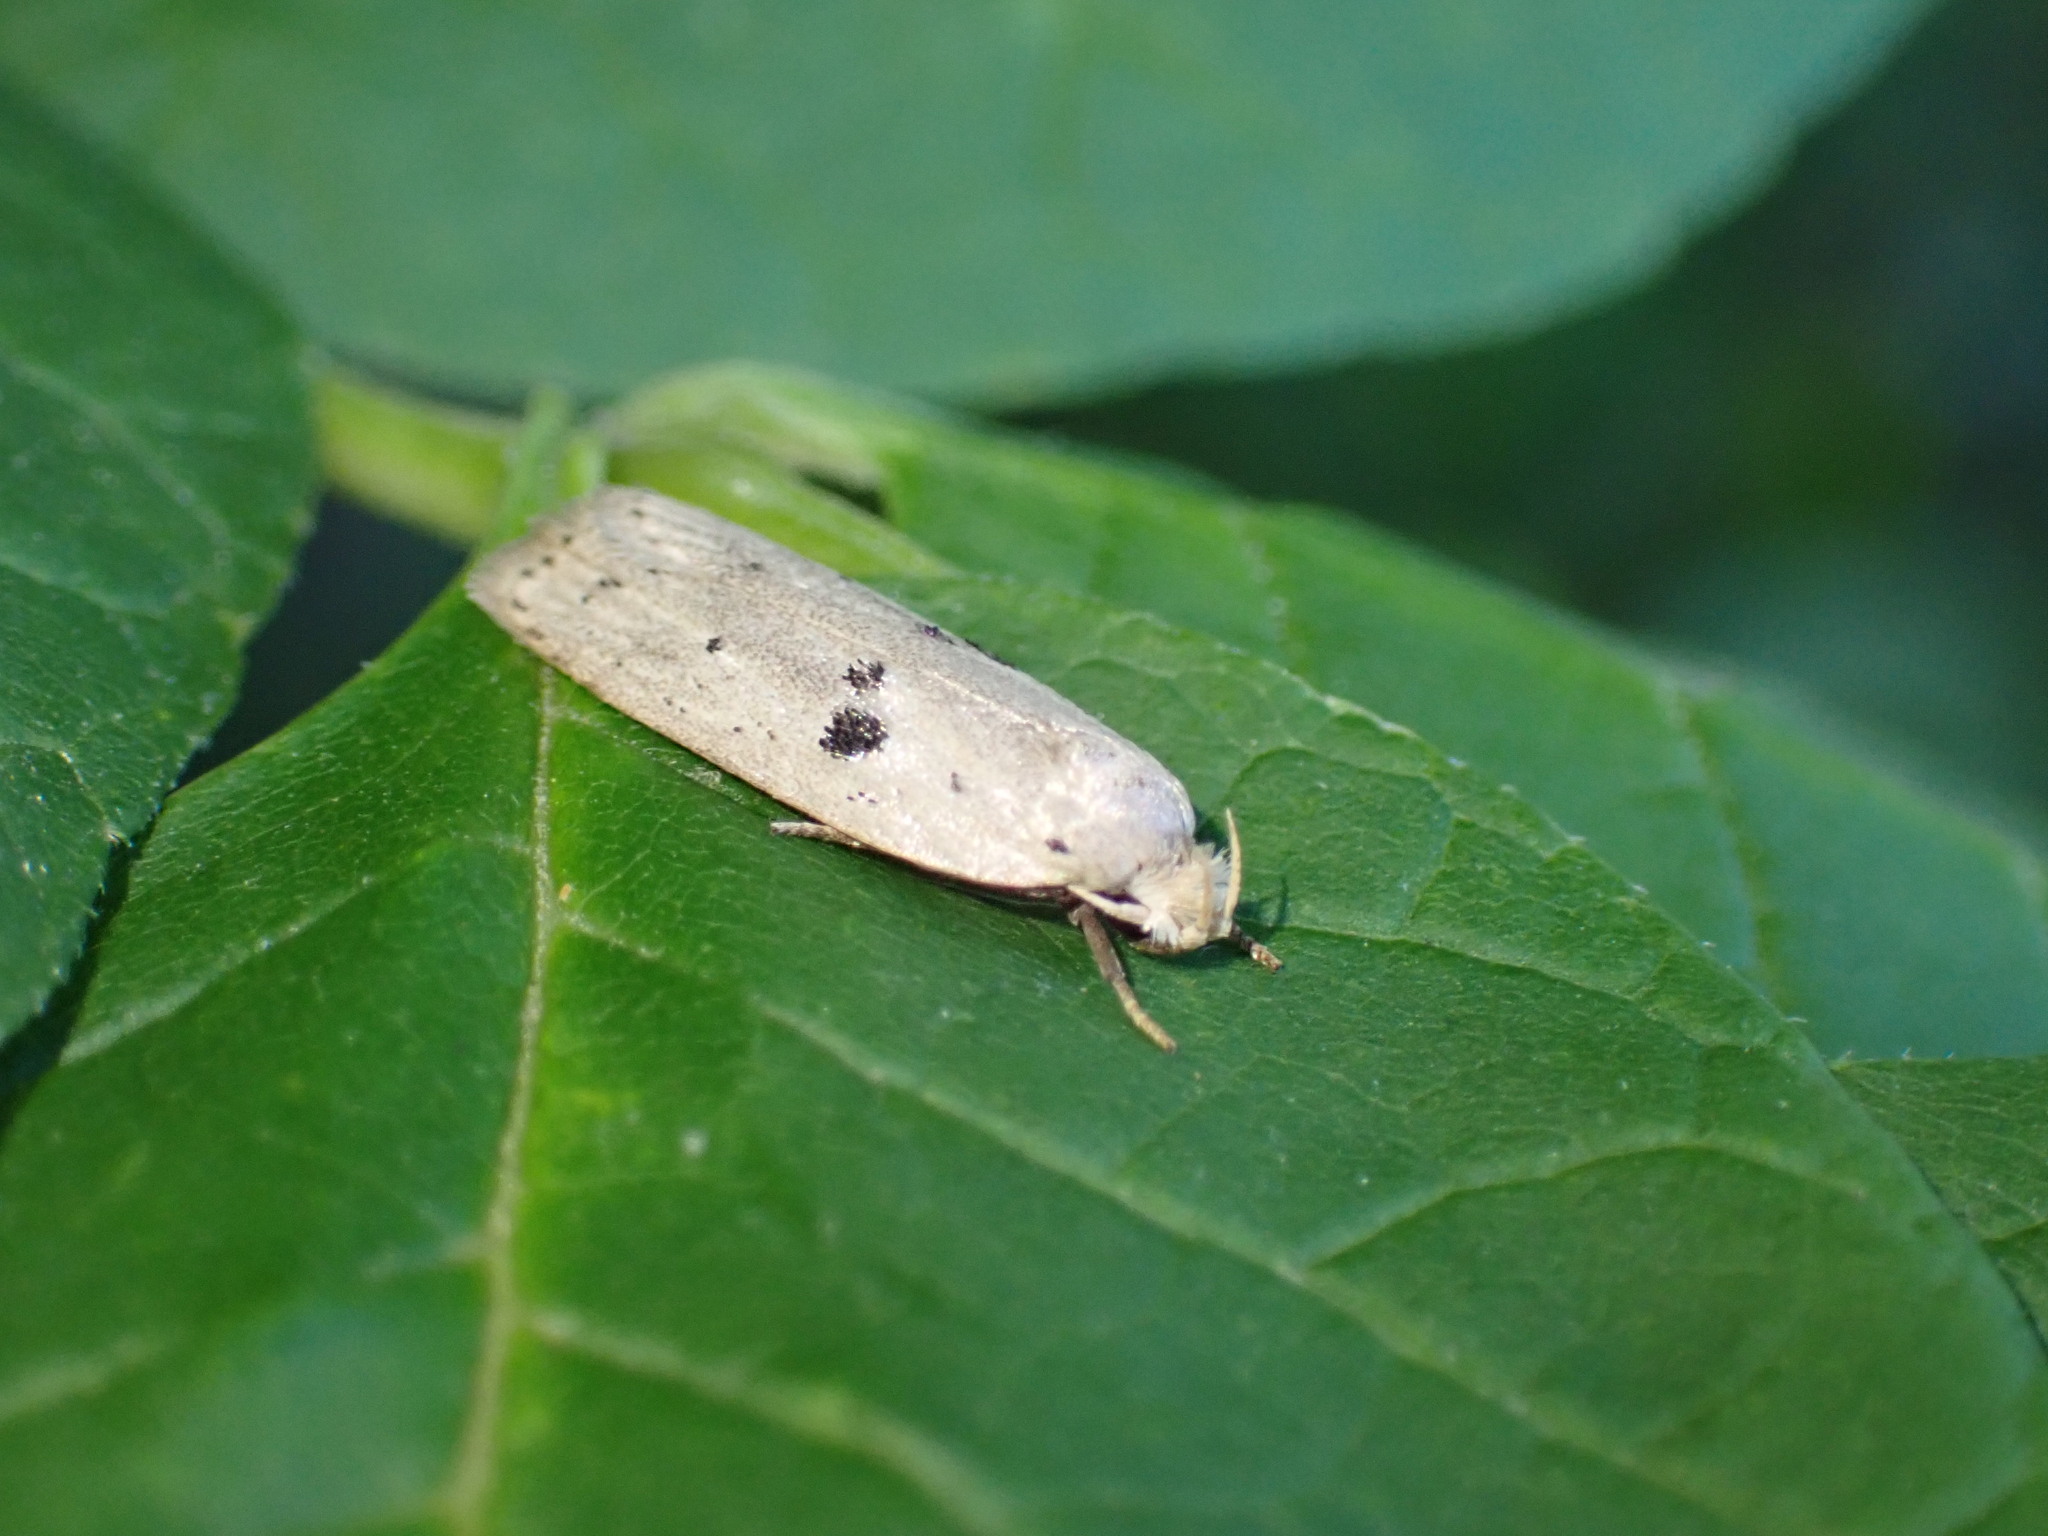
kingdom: Animalia
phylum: Arthropoda
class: Insecta
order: Lepidoptera
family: Peleopodidae
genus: Scythropiodes
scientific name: Scythropiodes issikii
